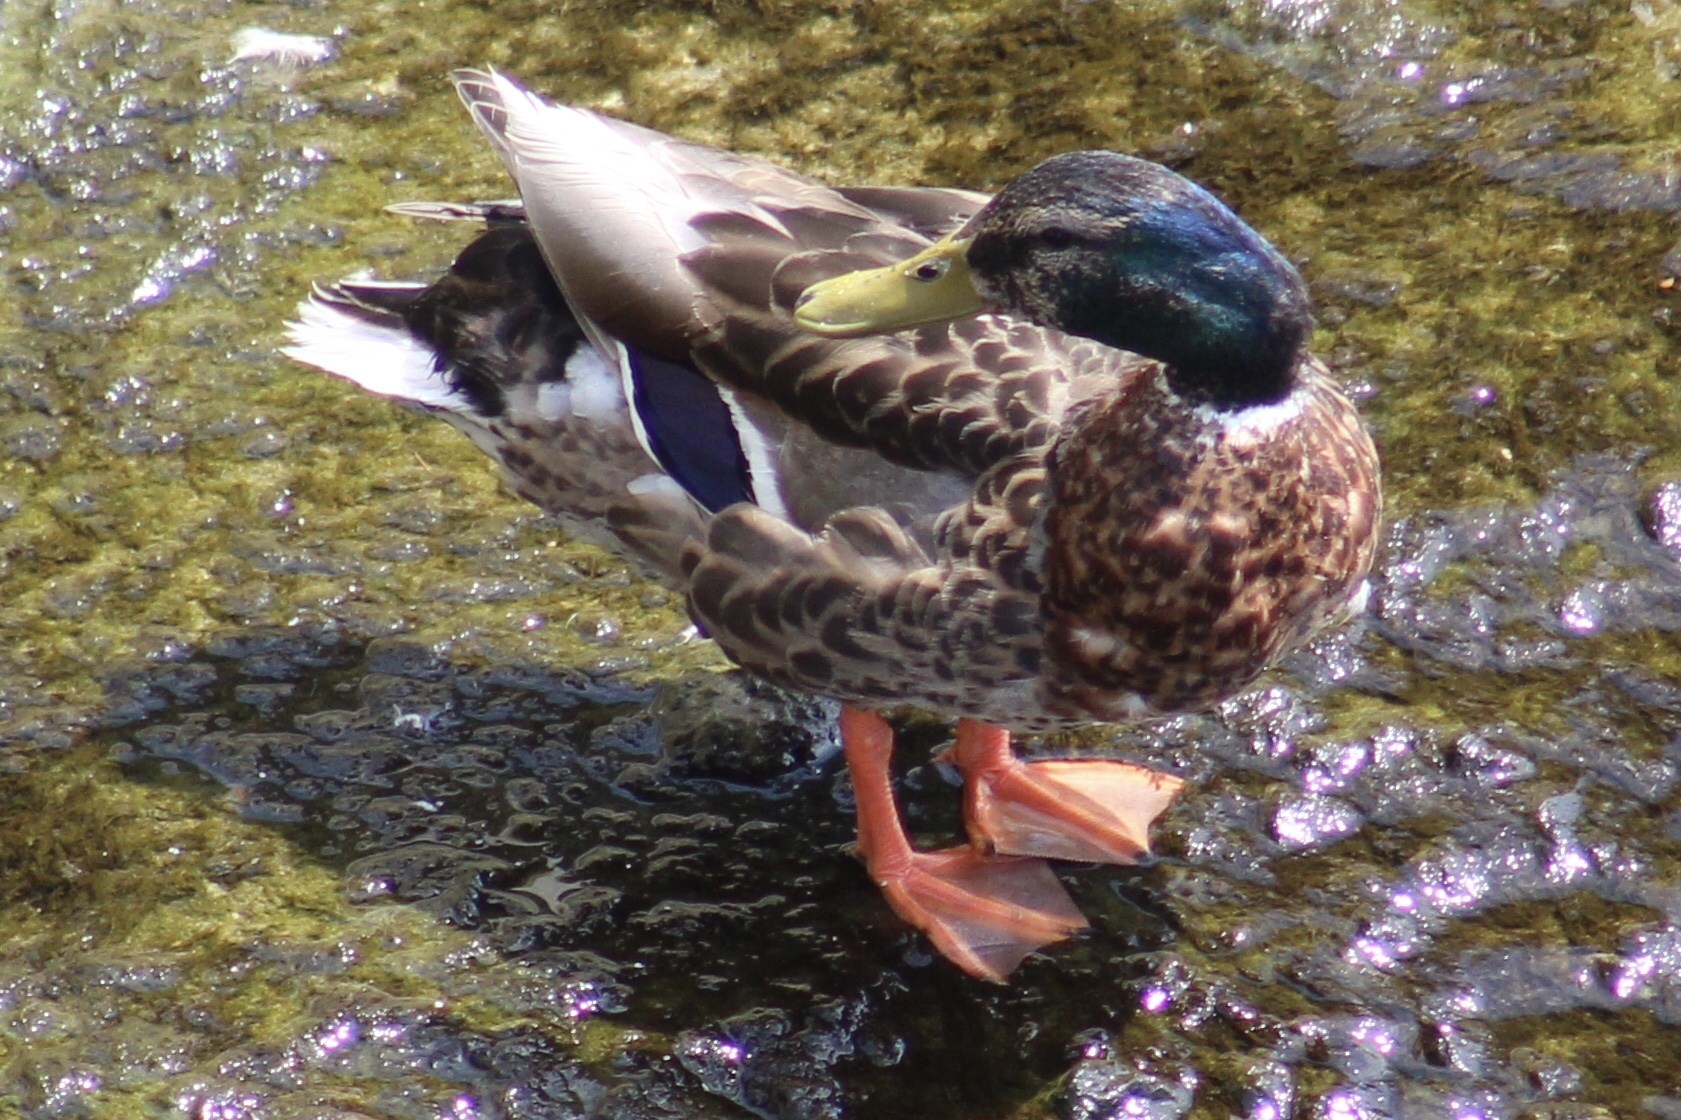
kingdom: Animalia
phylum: Chordata
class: Aves
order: Anseriformes
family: Anatidae
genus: Anas
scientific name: Anas platyrhynchos
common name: Mallard
